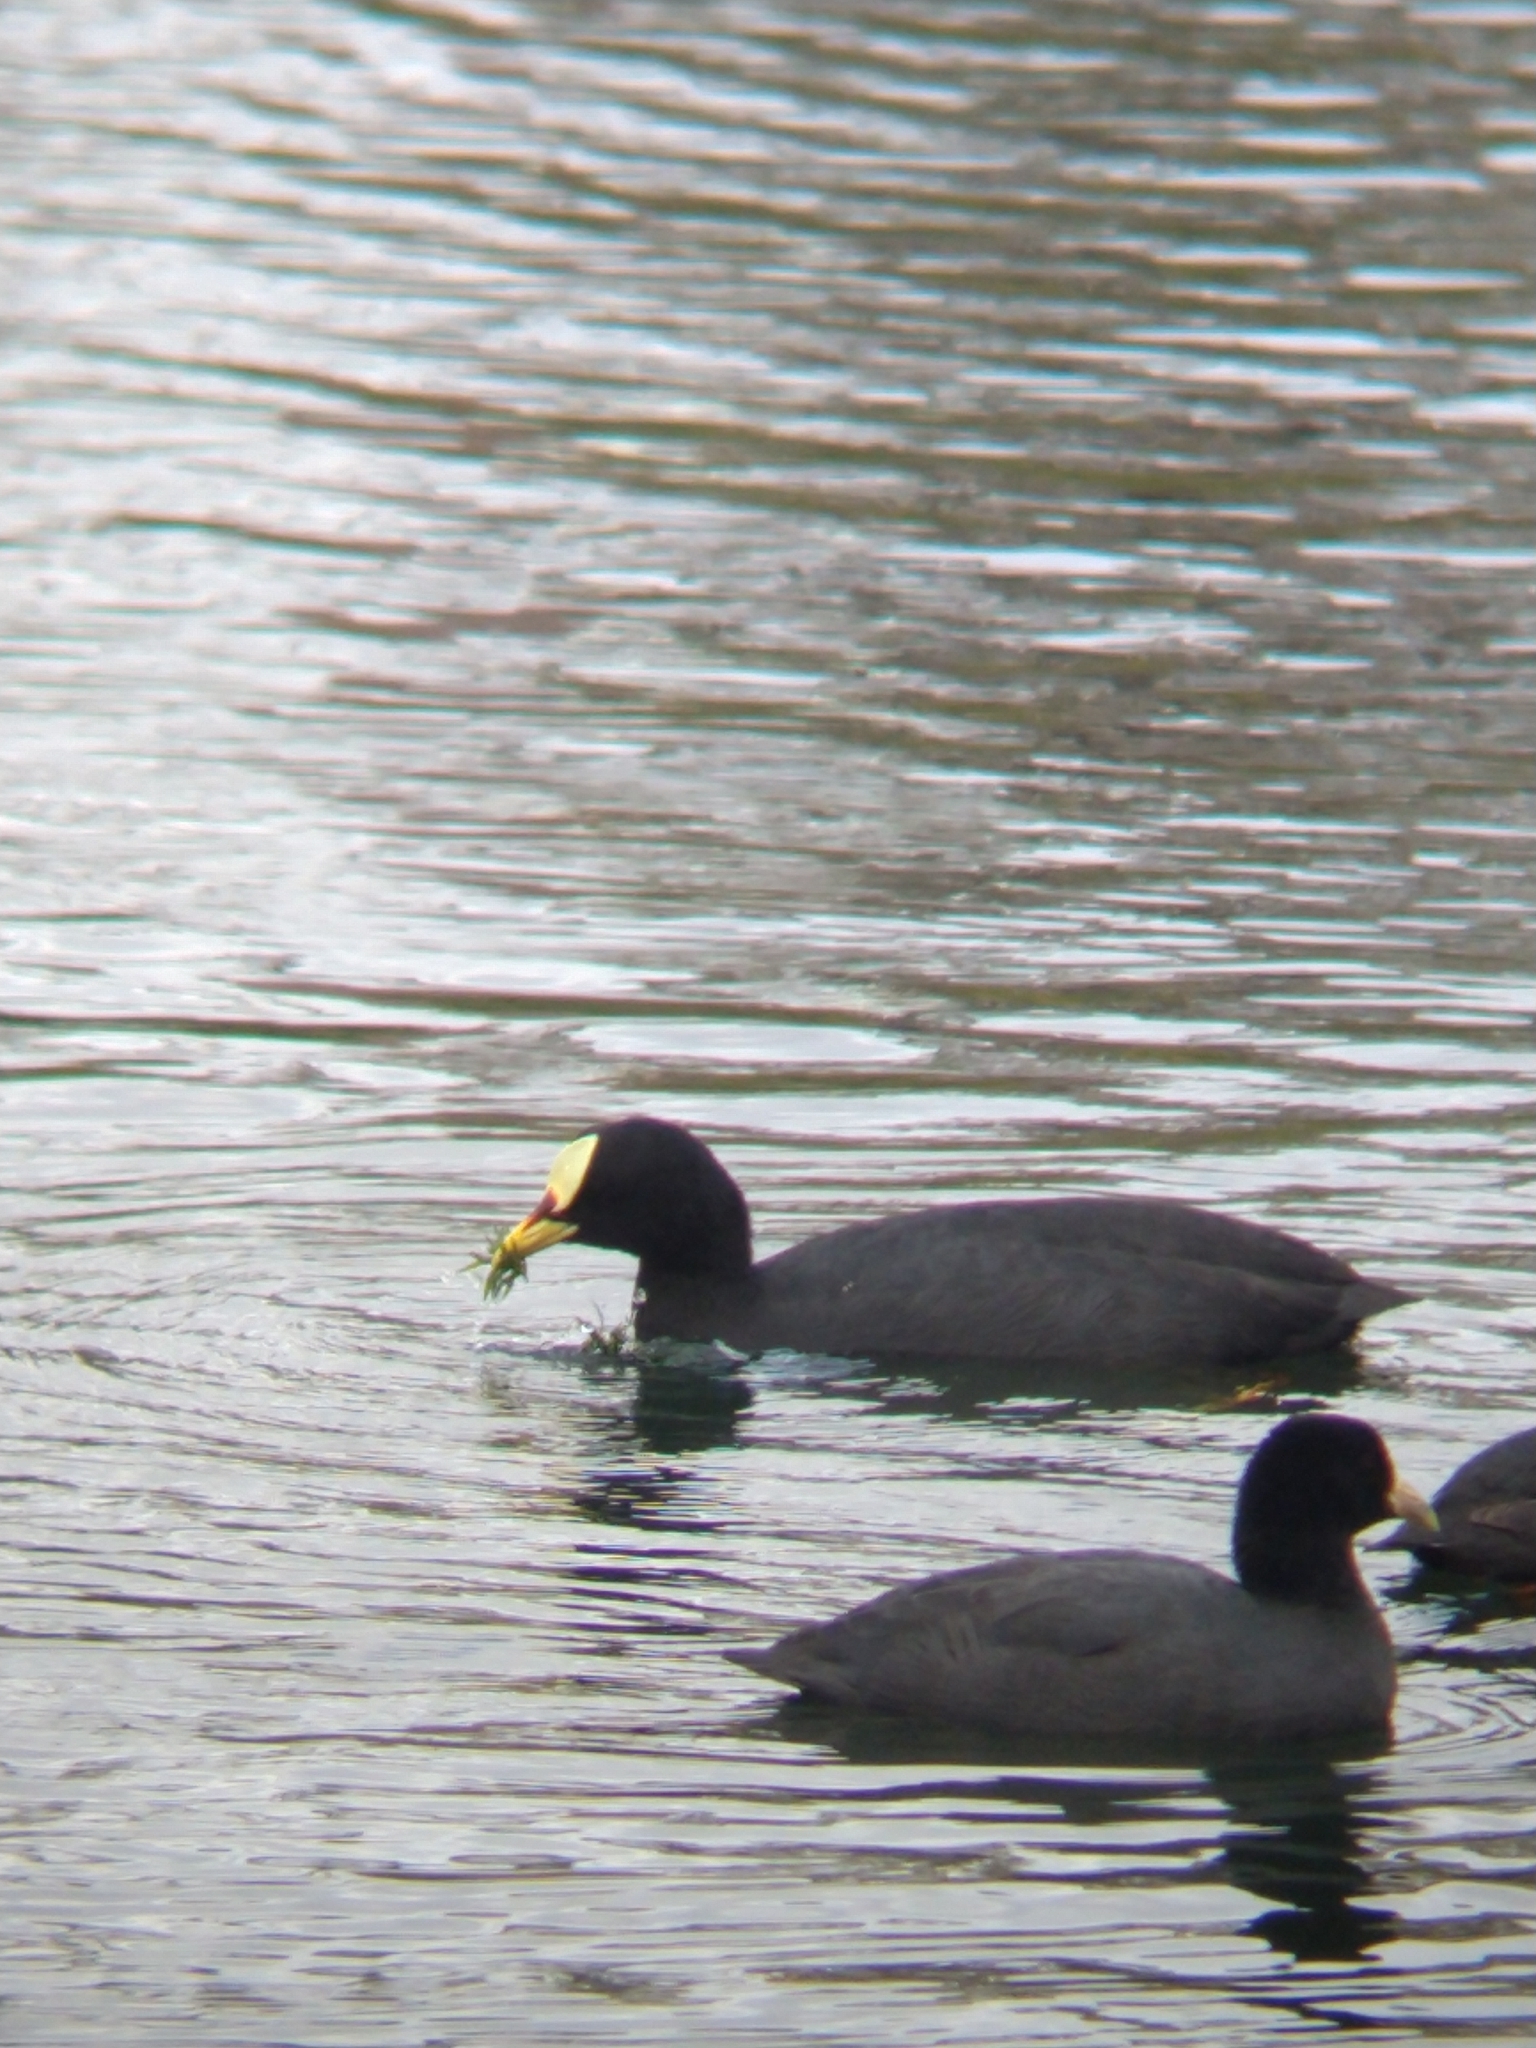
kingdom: Animalia
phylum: Chordata
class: Aves
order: Gruiformes
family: Rallidae
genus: Fulica
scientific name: Fulica armillata
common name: Red-gartered coot
